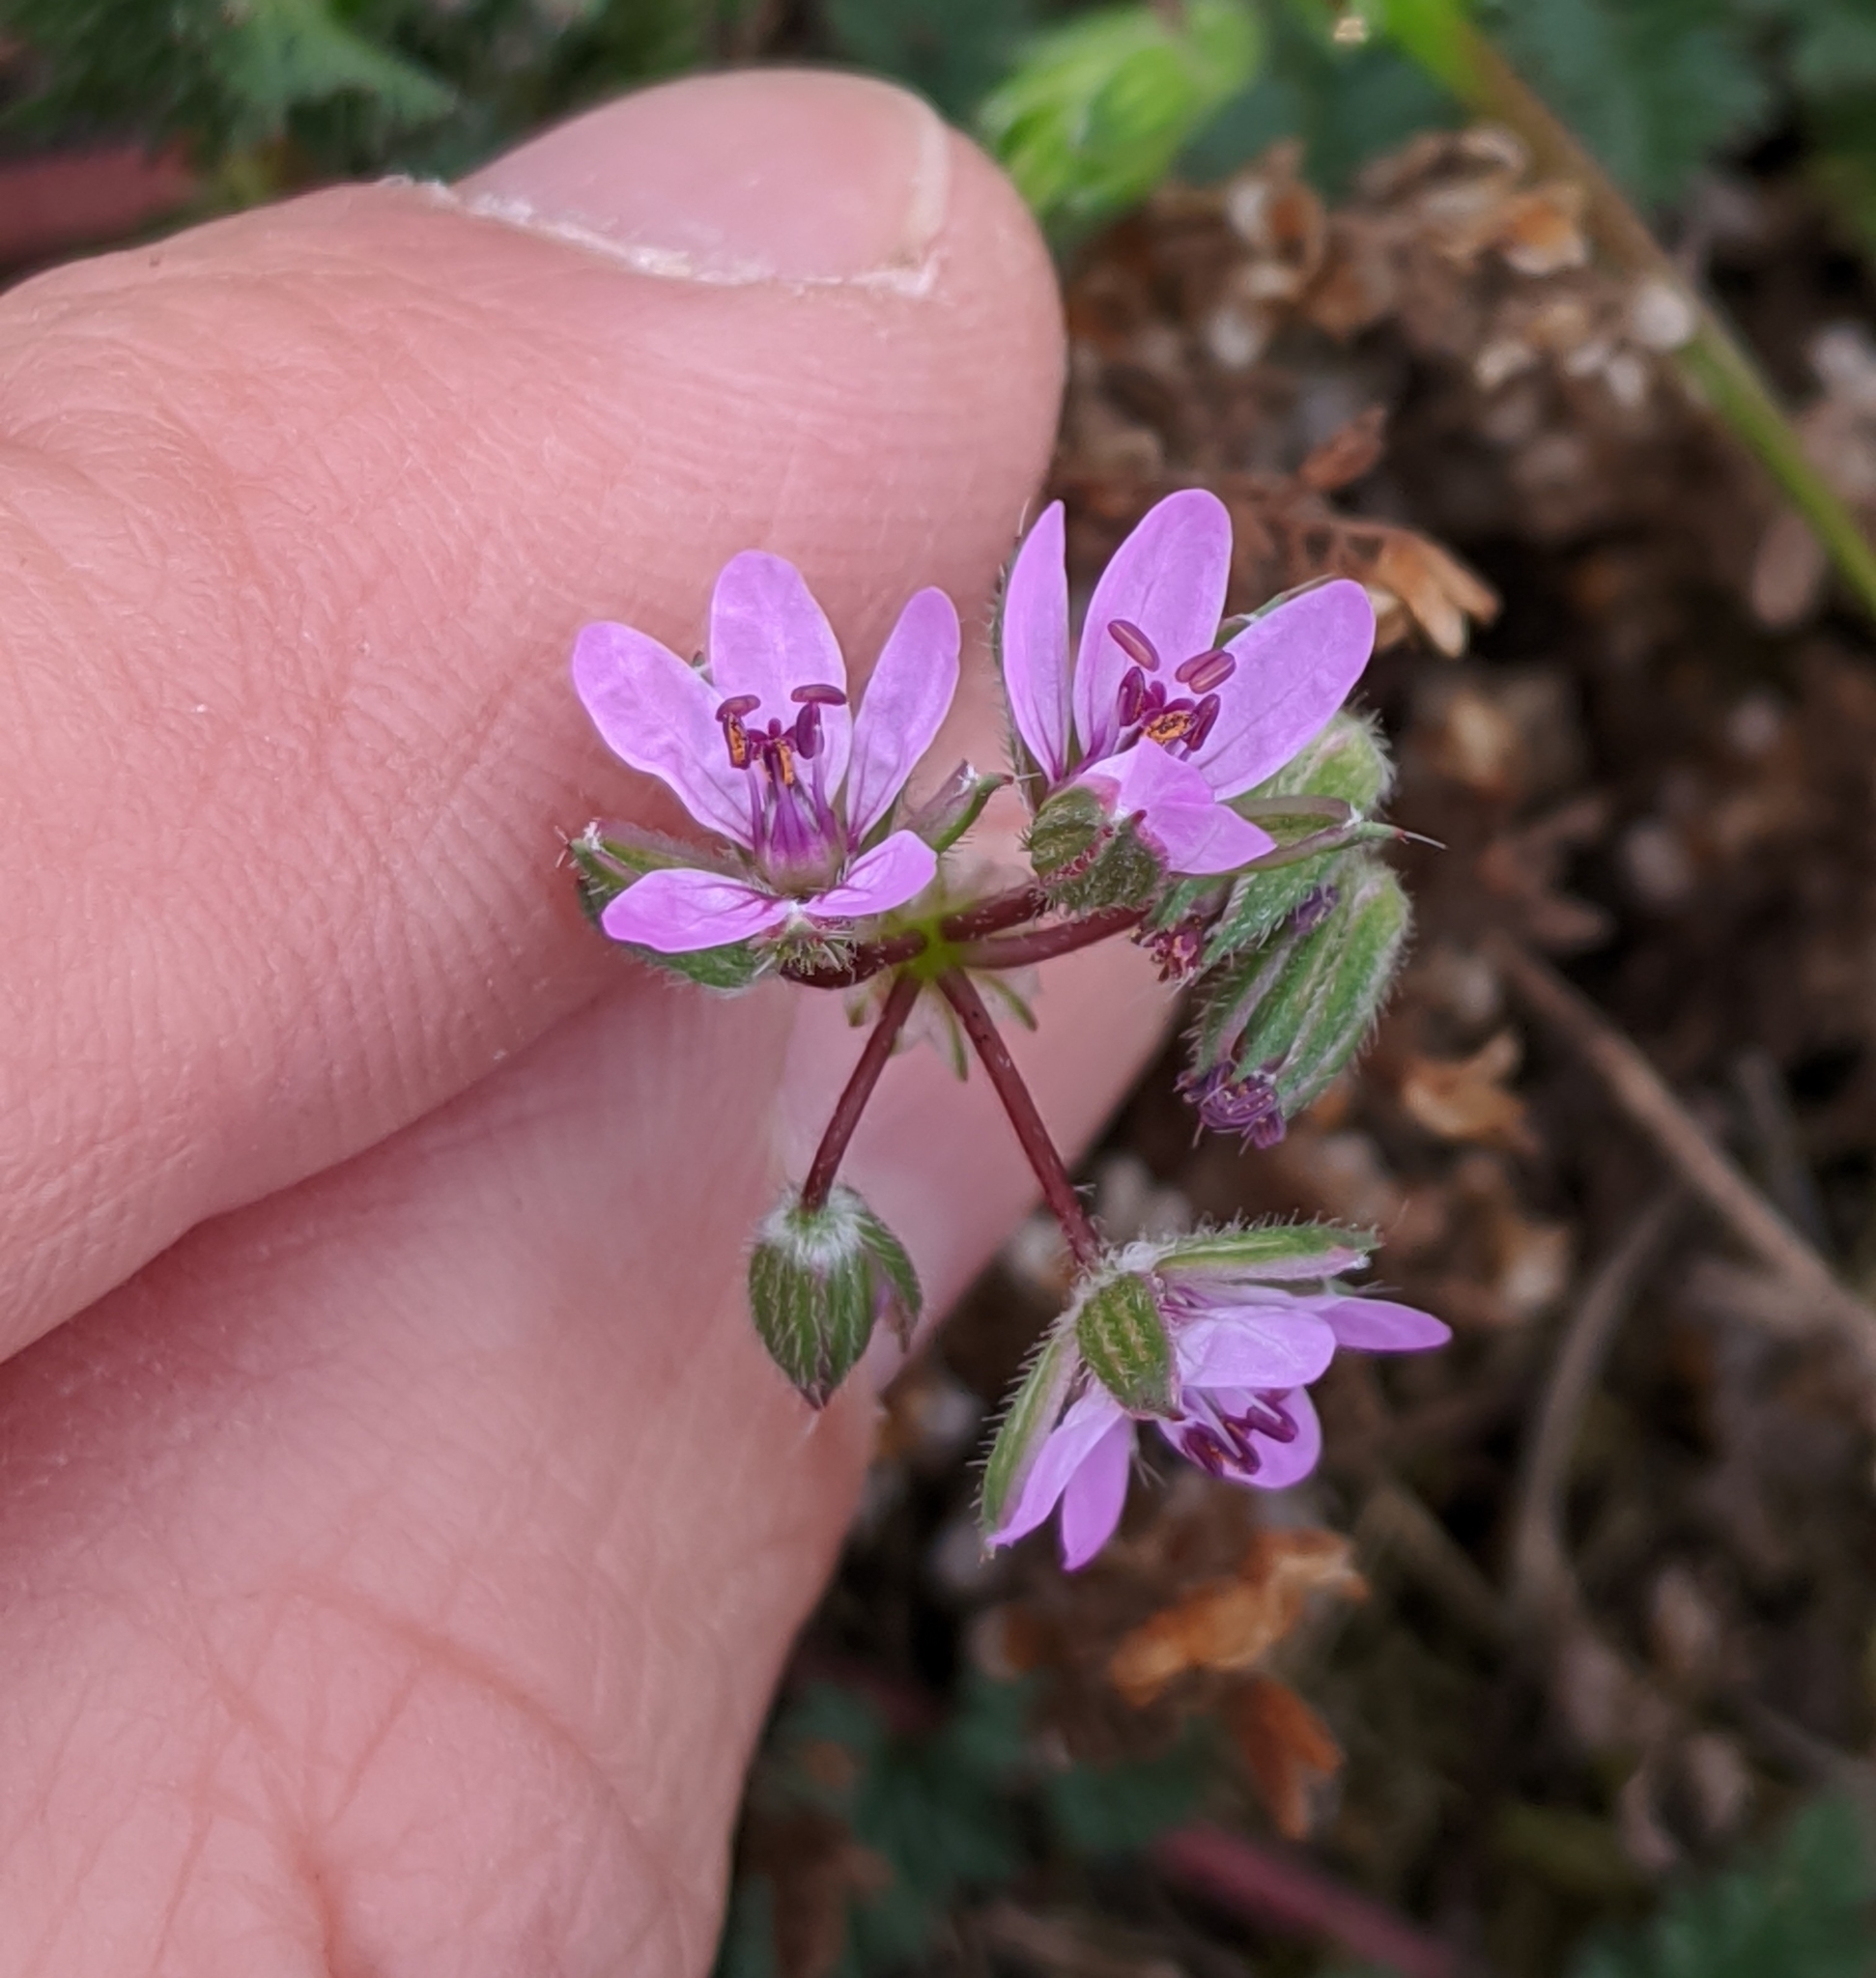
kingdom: Plantae
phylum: Tracheophyta
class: Magnoliopsida
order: Geraniales
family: Geraniaceae
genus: Erodium
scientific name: Erodium cicutarium
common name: Common stork's-bill
